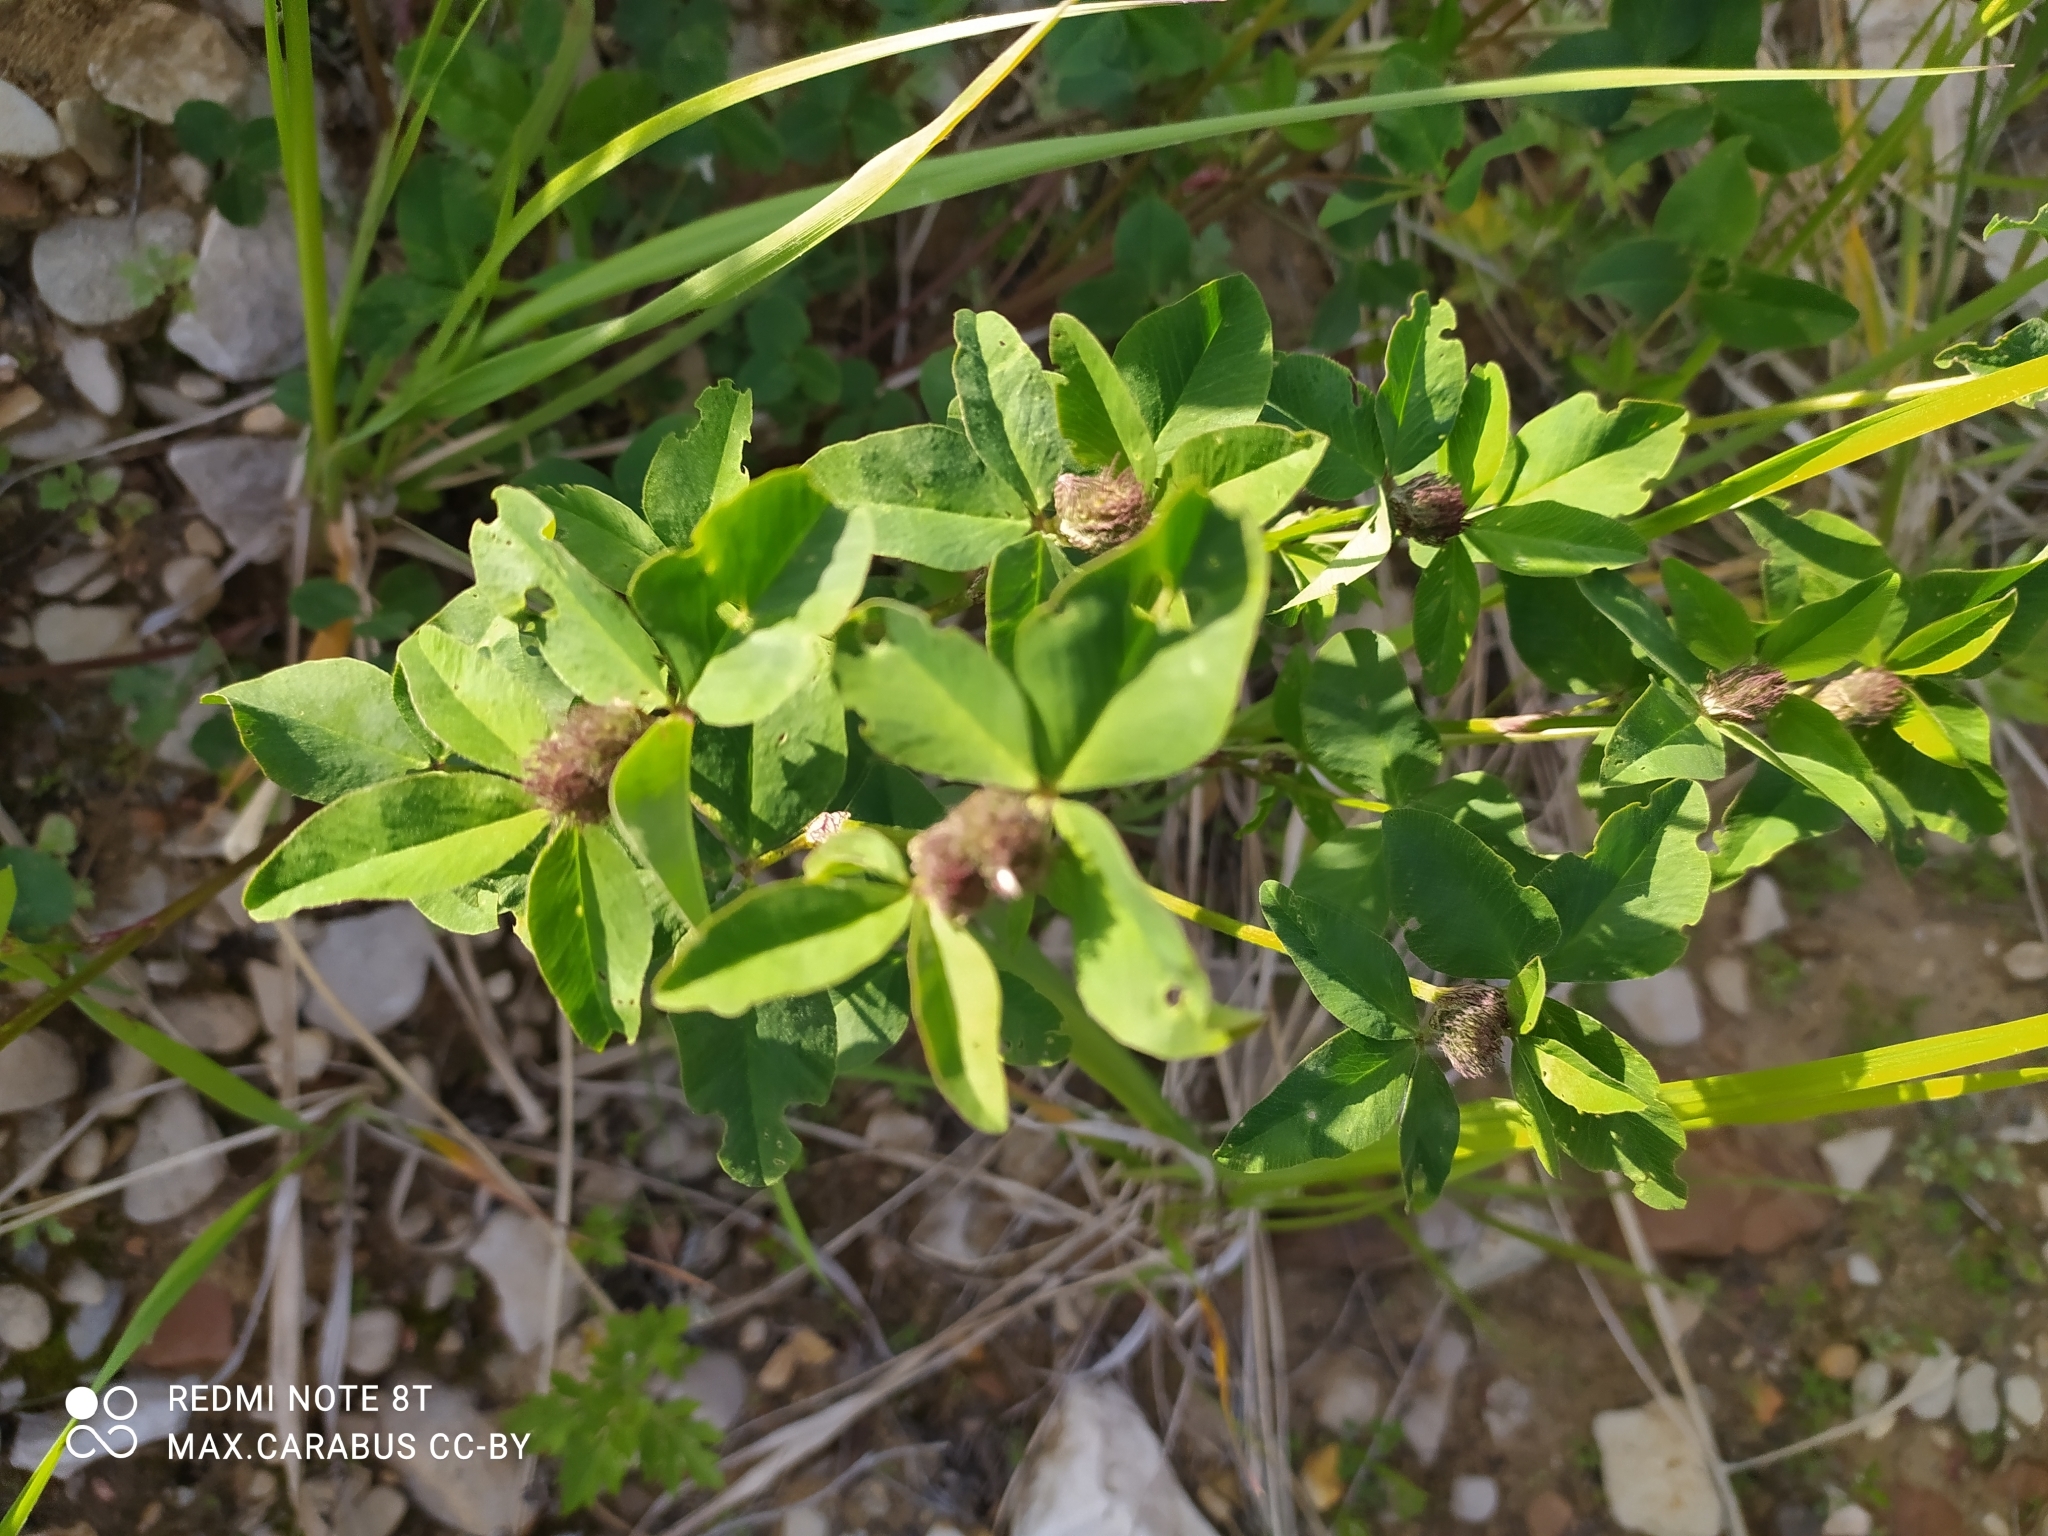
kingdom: Plantae
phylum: Tracheophyta
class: Magnoliopsida
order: Fabales
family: Fabaceae
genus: Trifolium
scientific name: Trifolium pratense
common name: Red clover
